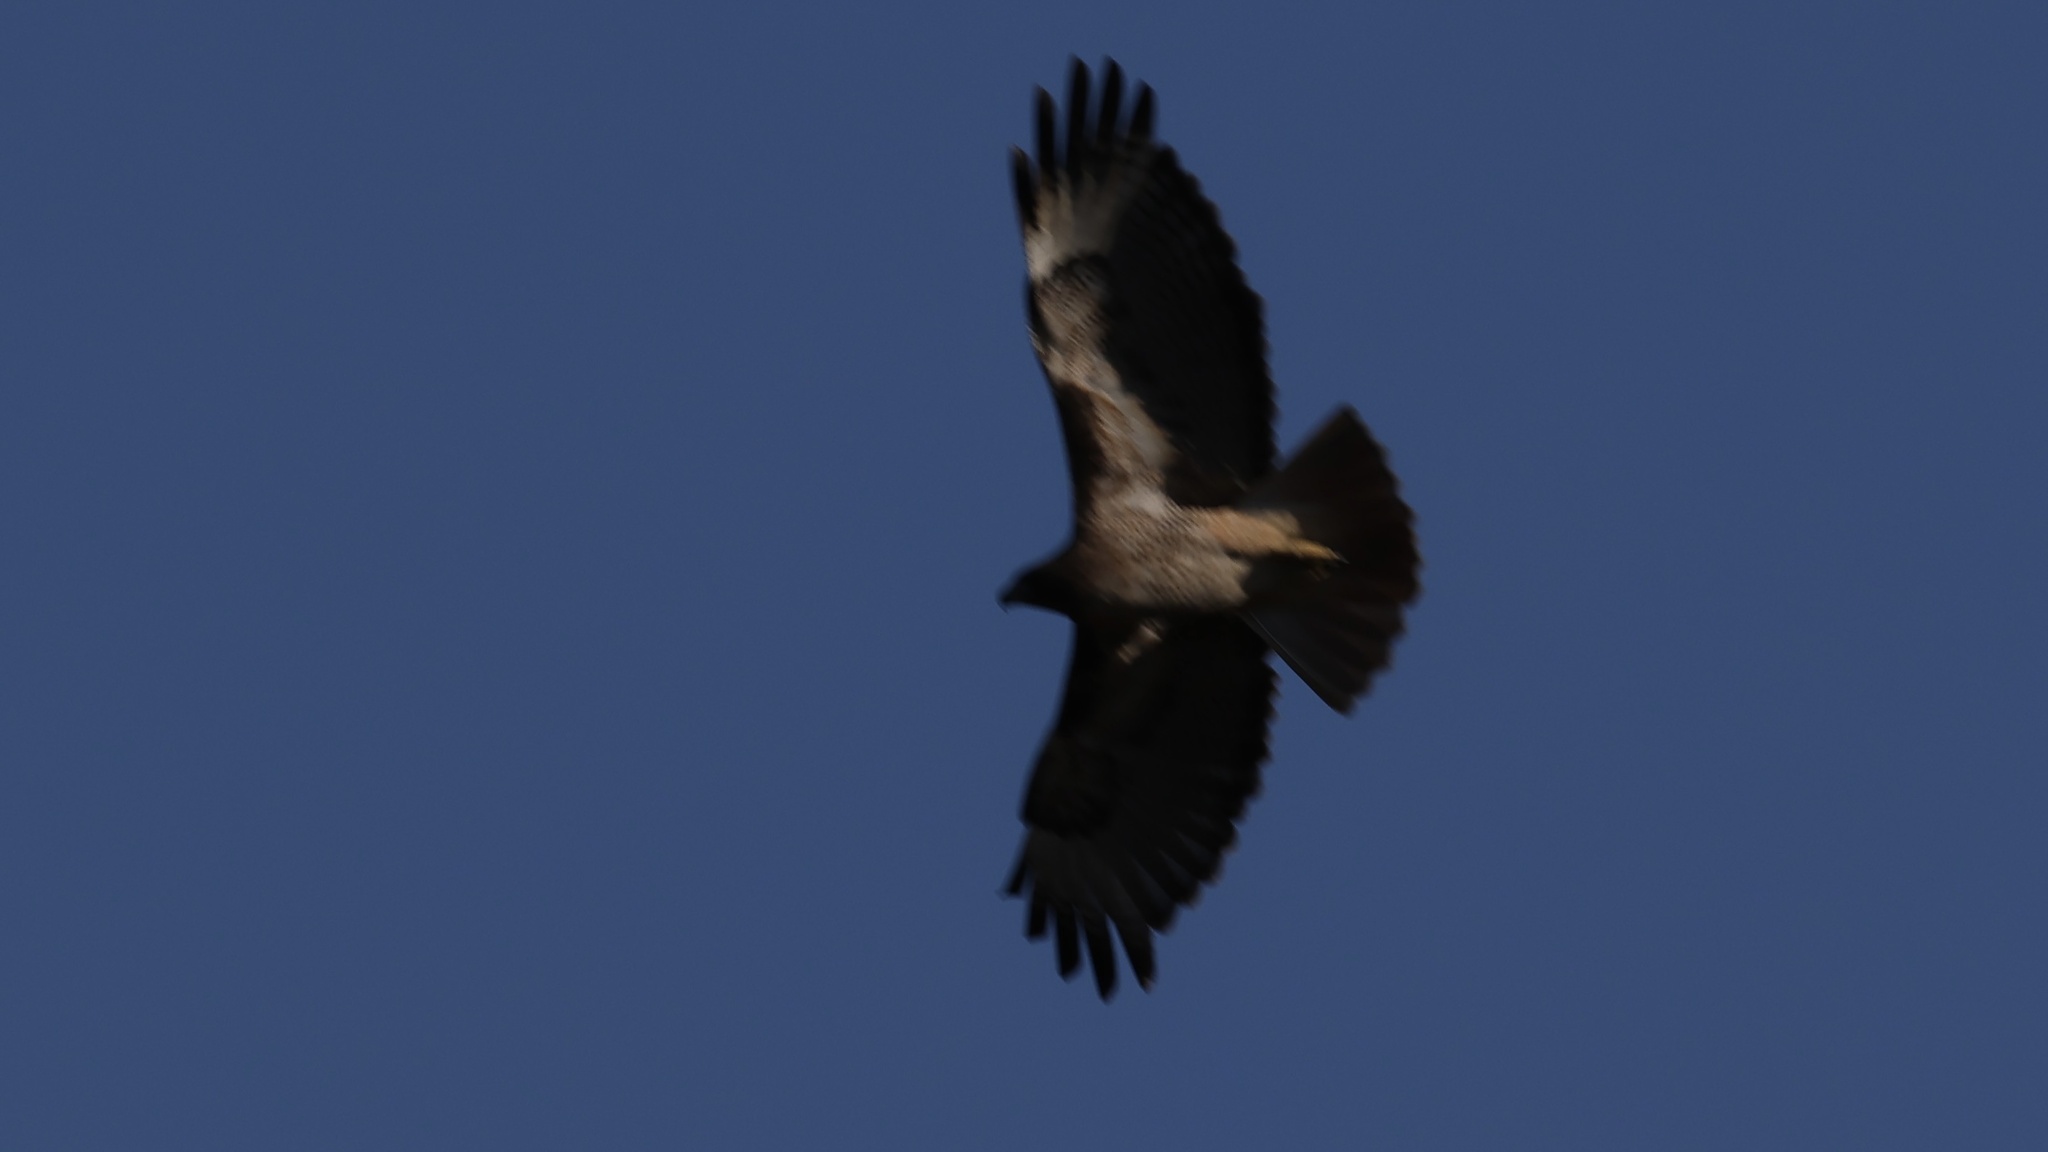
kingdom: Animalia
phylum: Chordata
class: Aves
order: Accipitriformes
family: Accipitridae
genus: Buteo
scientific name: Buteo jamaicensis
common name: Red-tailed hawk
